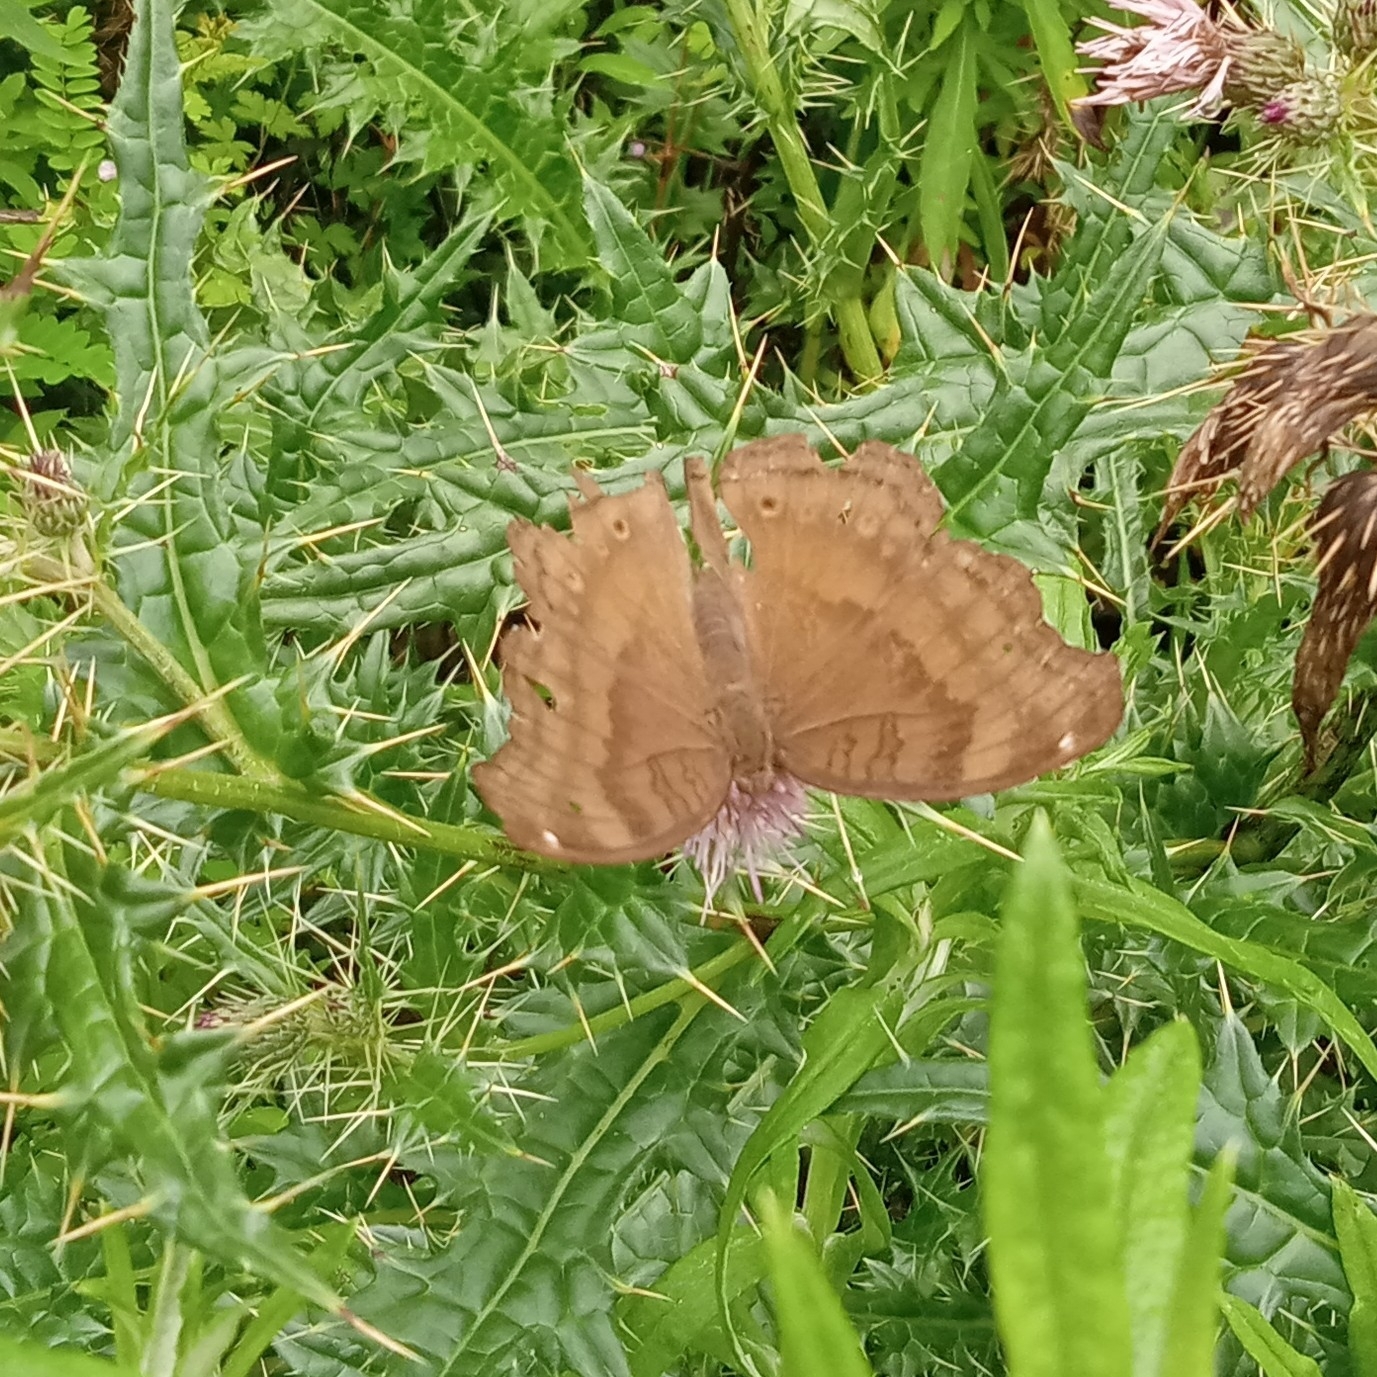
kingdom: Animalia
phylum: Arthropoda
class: Insecta
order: Lepidoptera
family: Nymphalidae
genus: Junonia
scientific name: Junonia iphita
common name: Chocolate pansy
